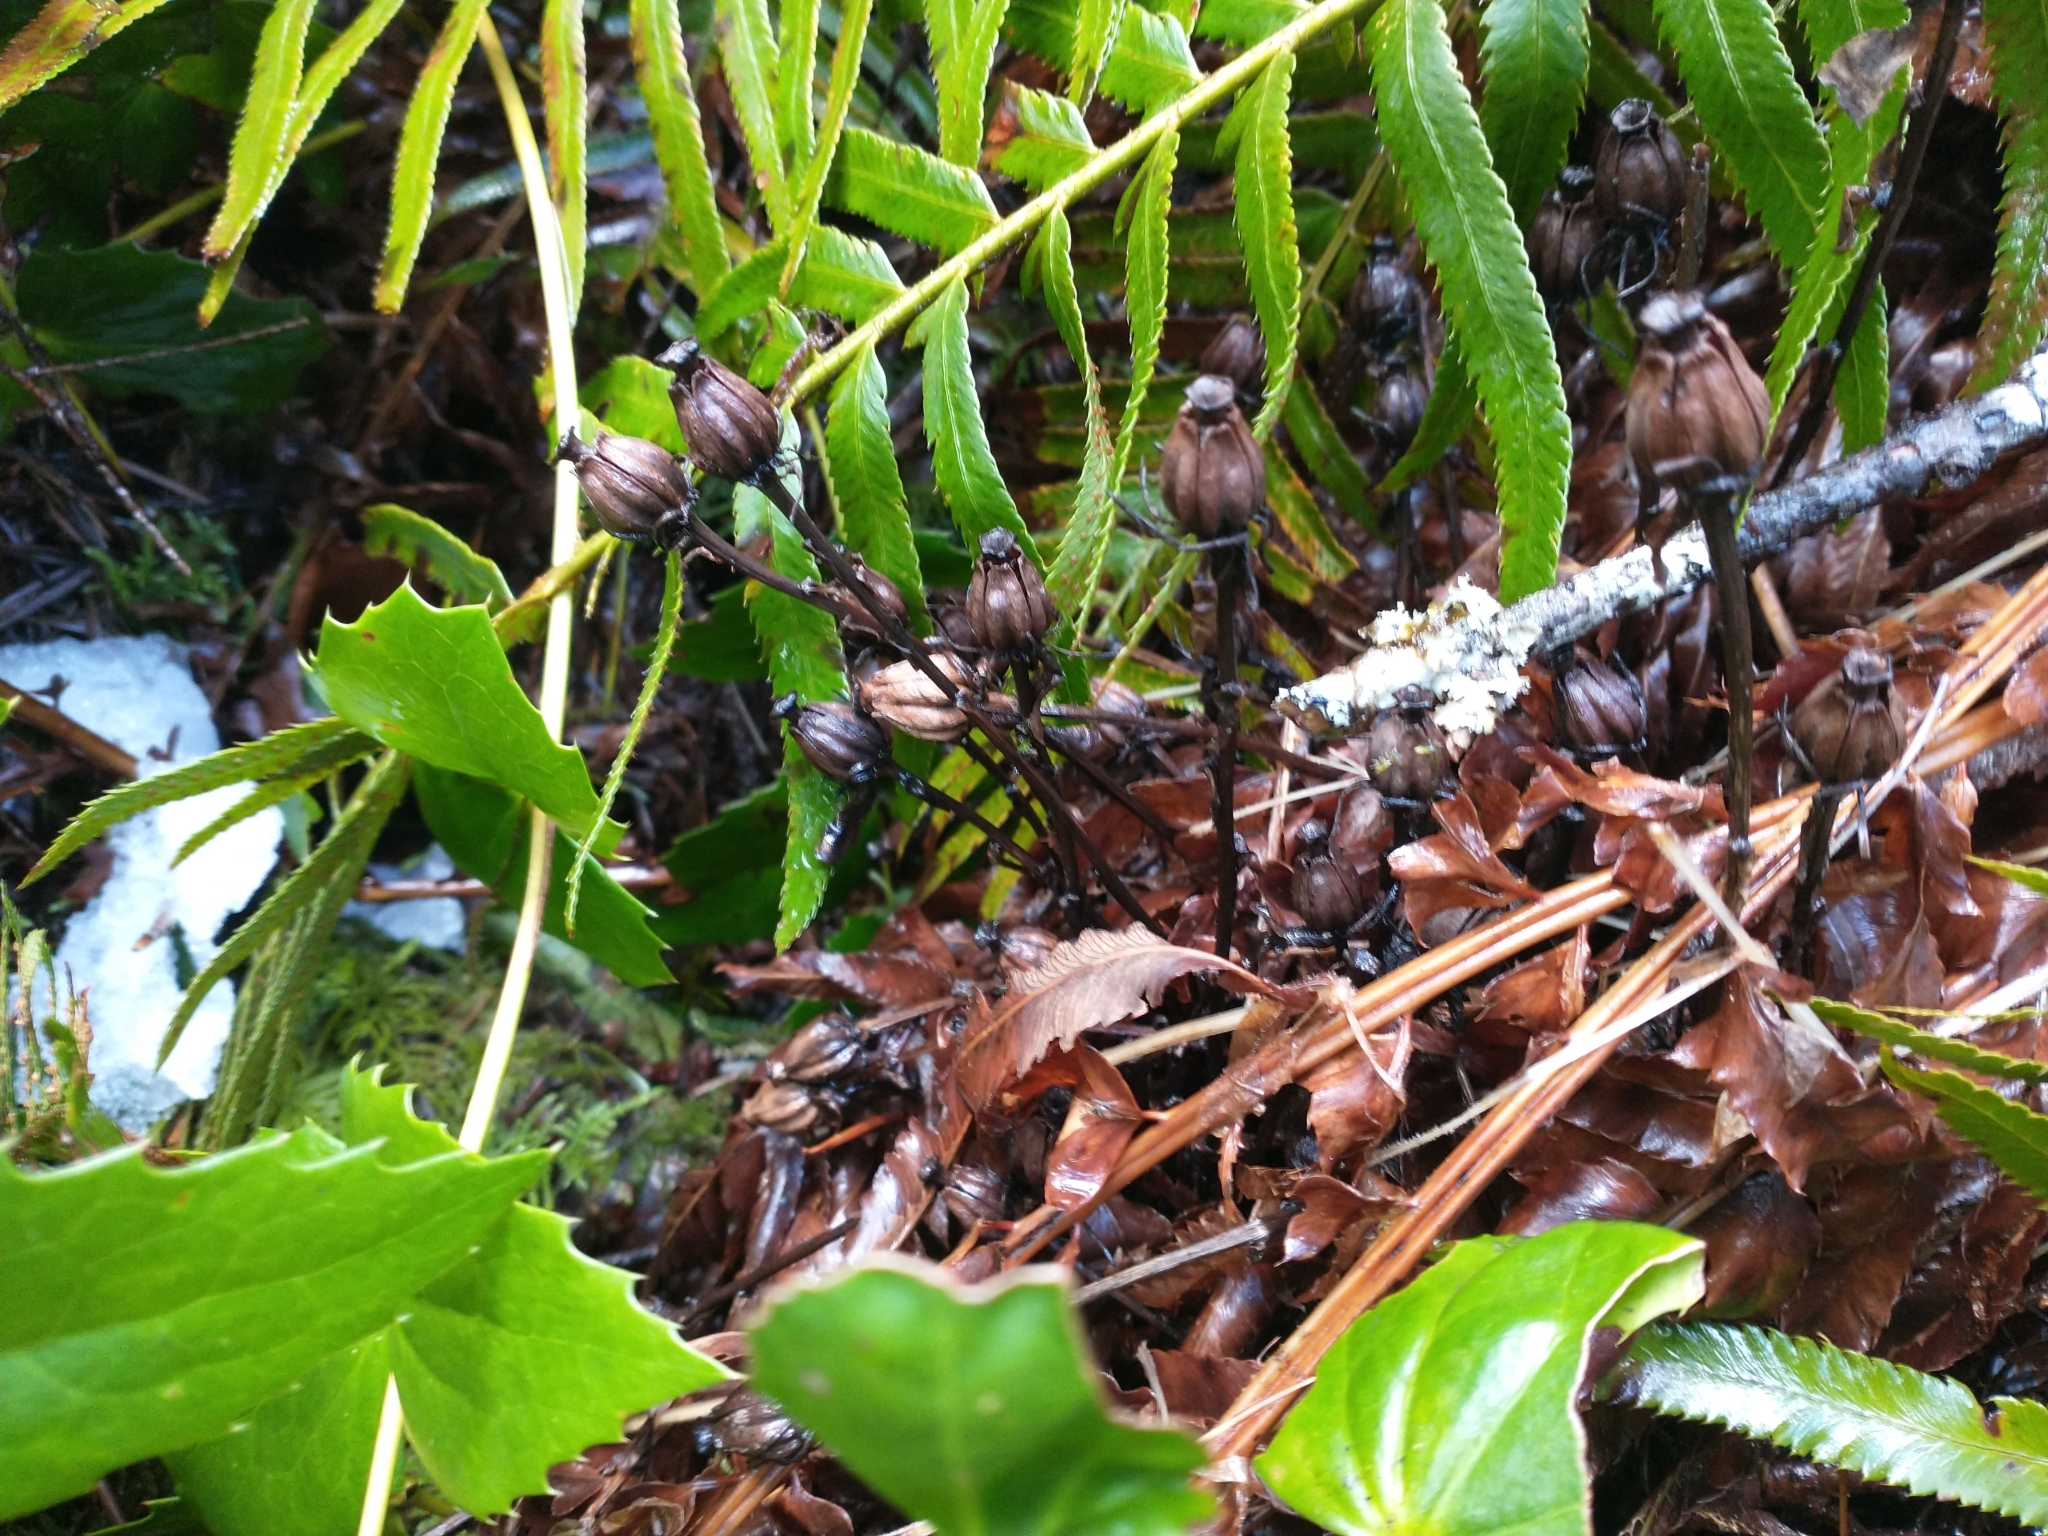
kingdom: Plantae
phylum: Tracheophyta
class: Magnoliopsida
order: Ericales
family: Ericaceae
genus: Monotropa
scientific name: Monotropa uniflora
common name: Convulsion root
